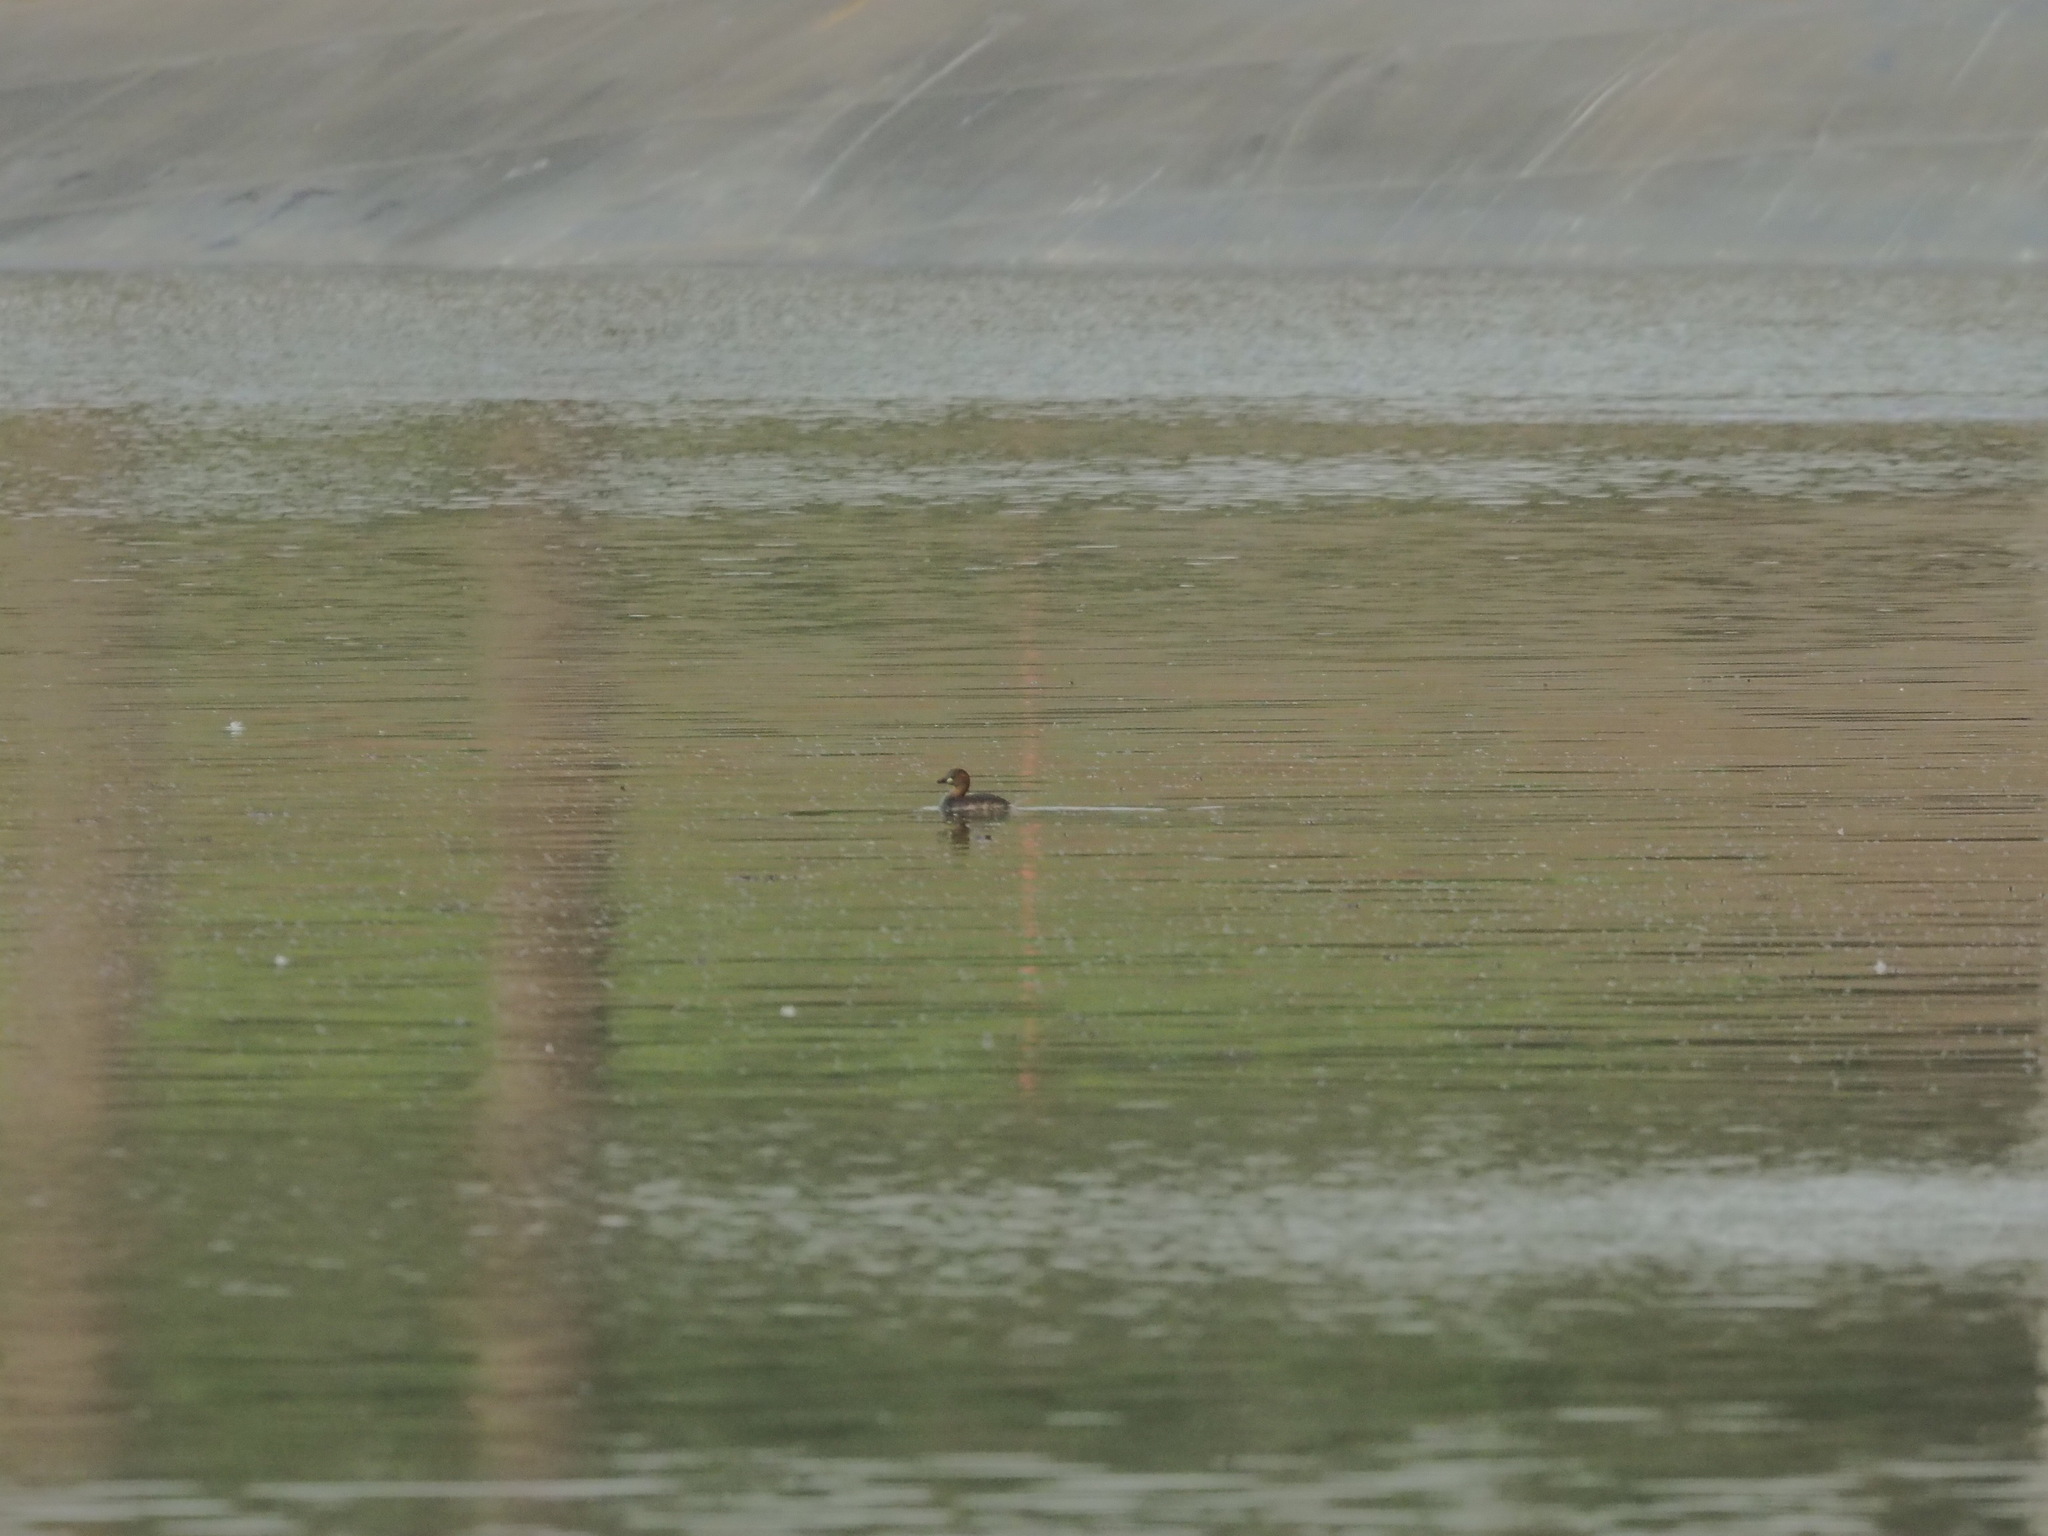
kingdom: Animalia
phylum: Chordata
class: Aves
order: Podicipediformes
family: Podicipedidae
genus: Tachybaptus
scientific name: Tachybaptus ruficollis
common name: Little grebe
